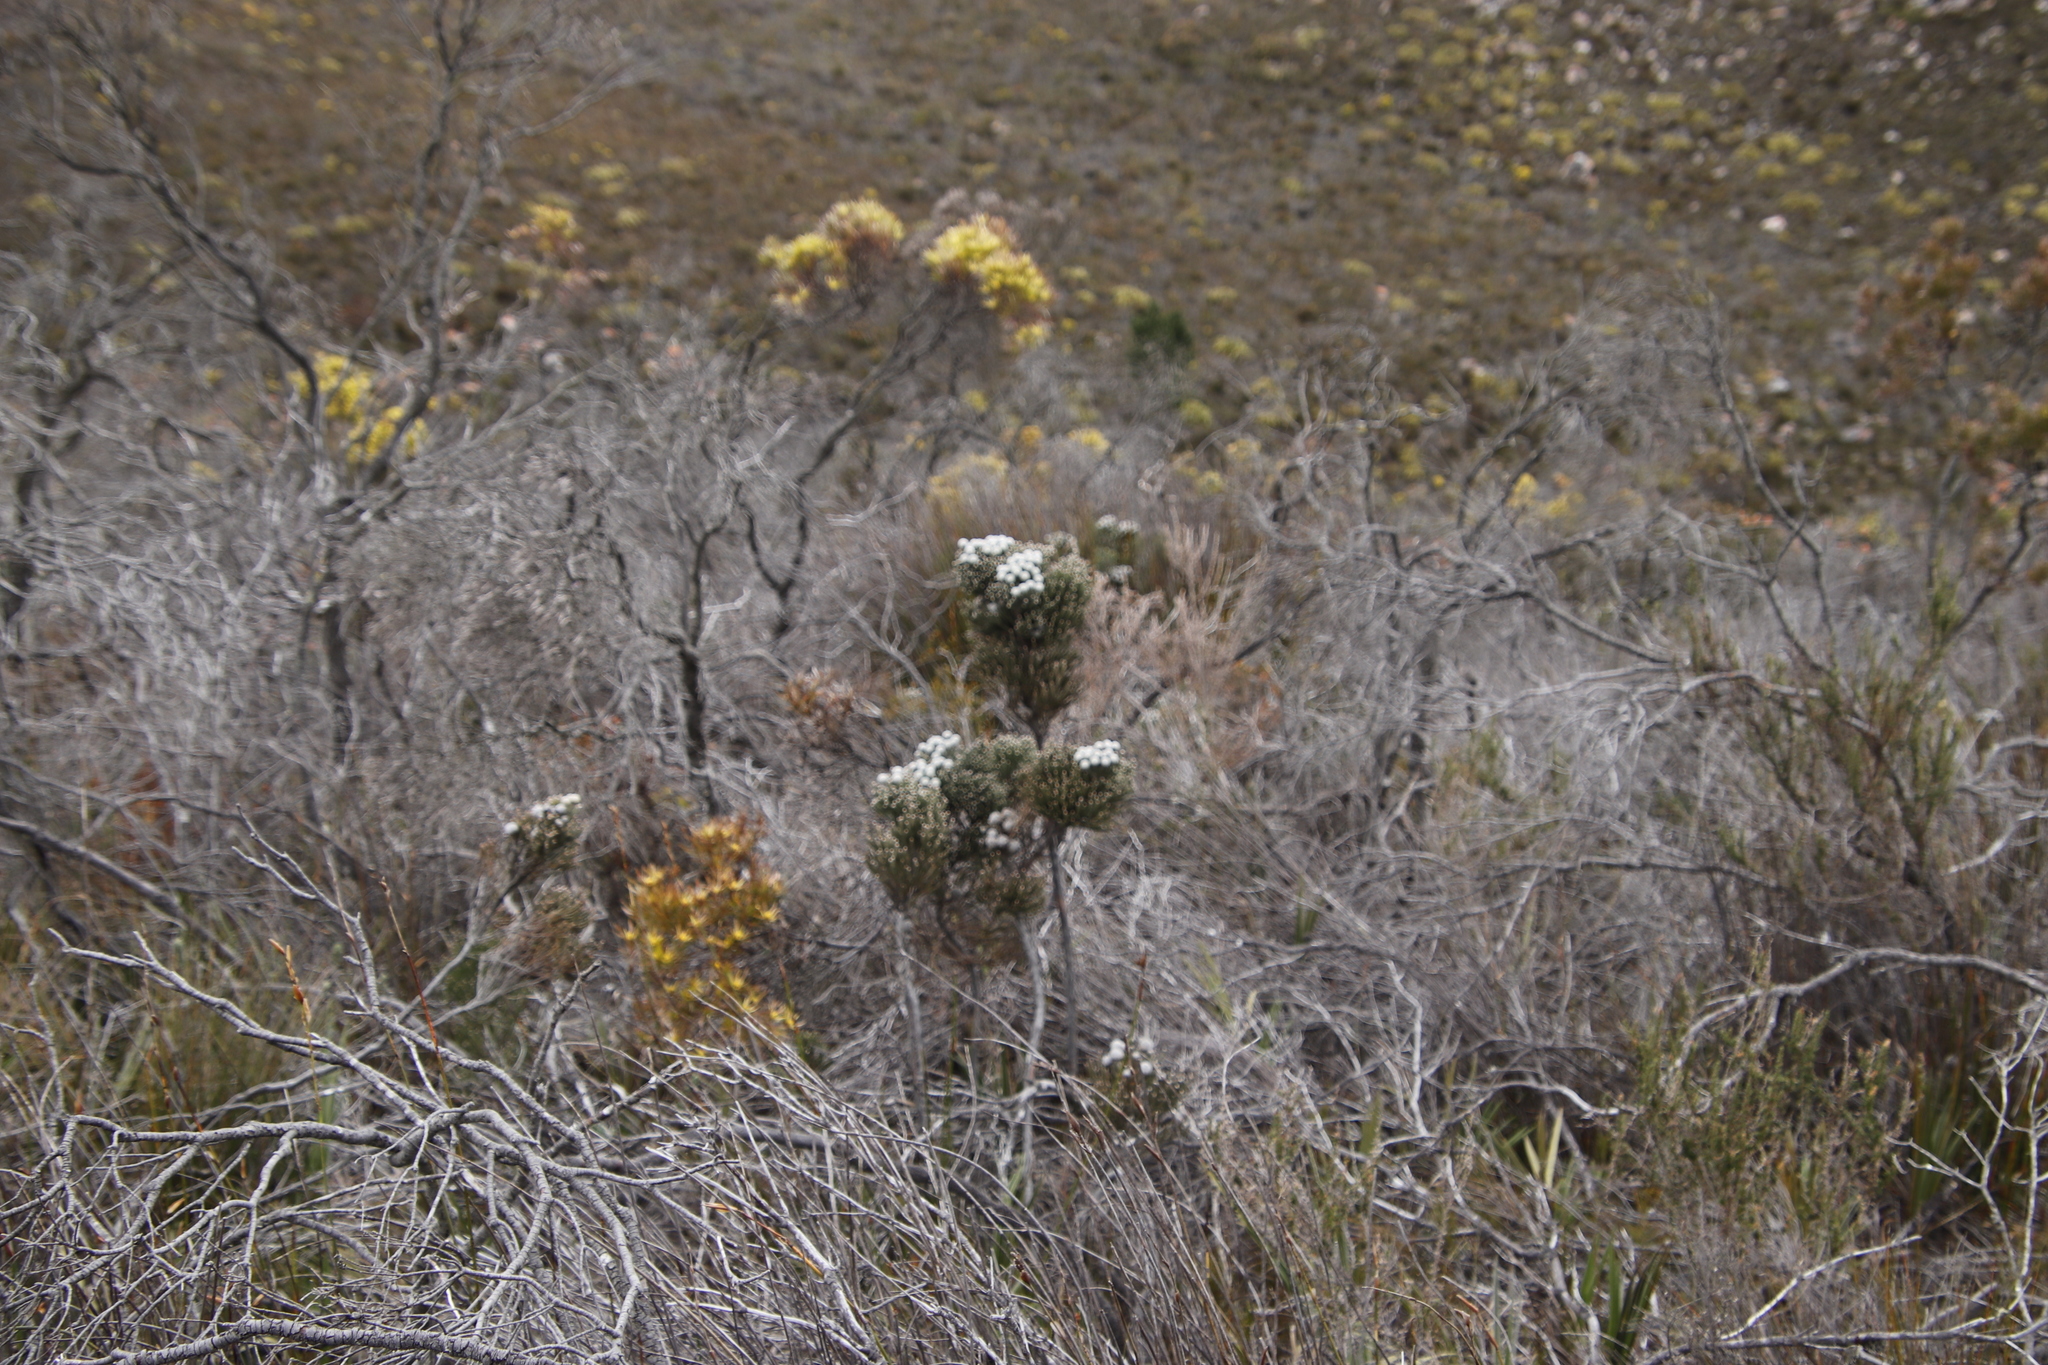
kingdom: Plantae
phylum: Tracheophyta
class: Magnoliopsida
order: Proteales
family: Proteaceae
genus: Mimetes
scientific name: Mimetes cucullatus
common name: Common pagoda
